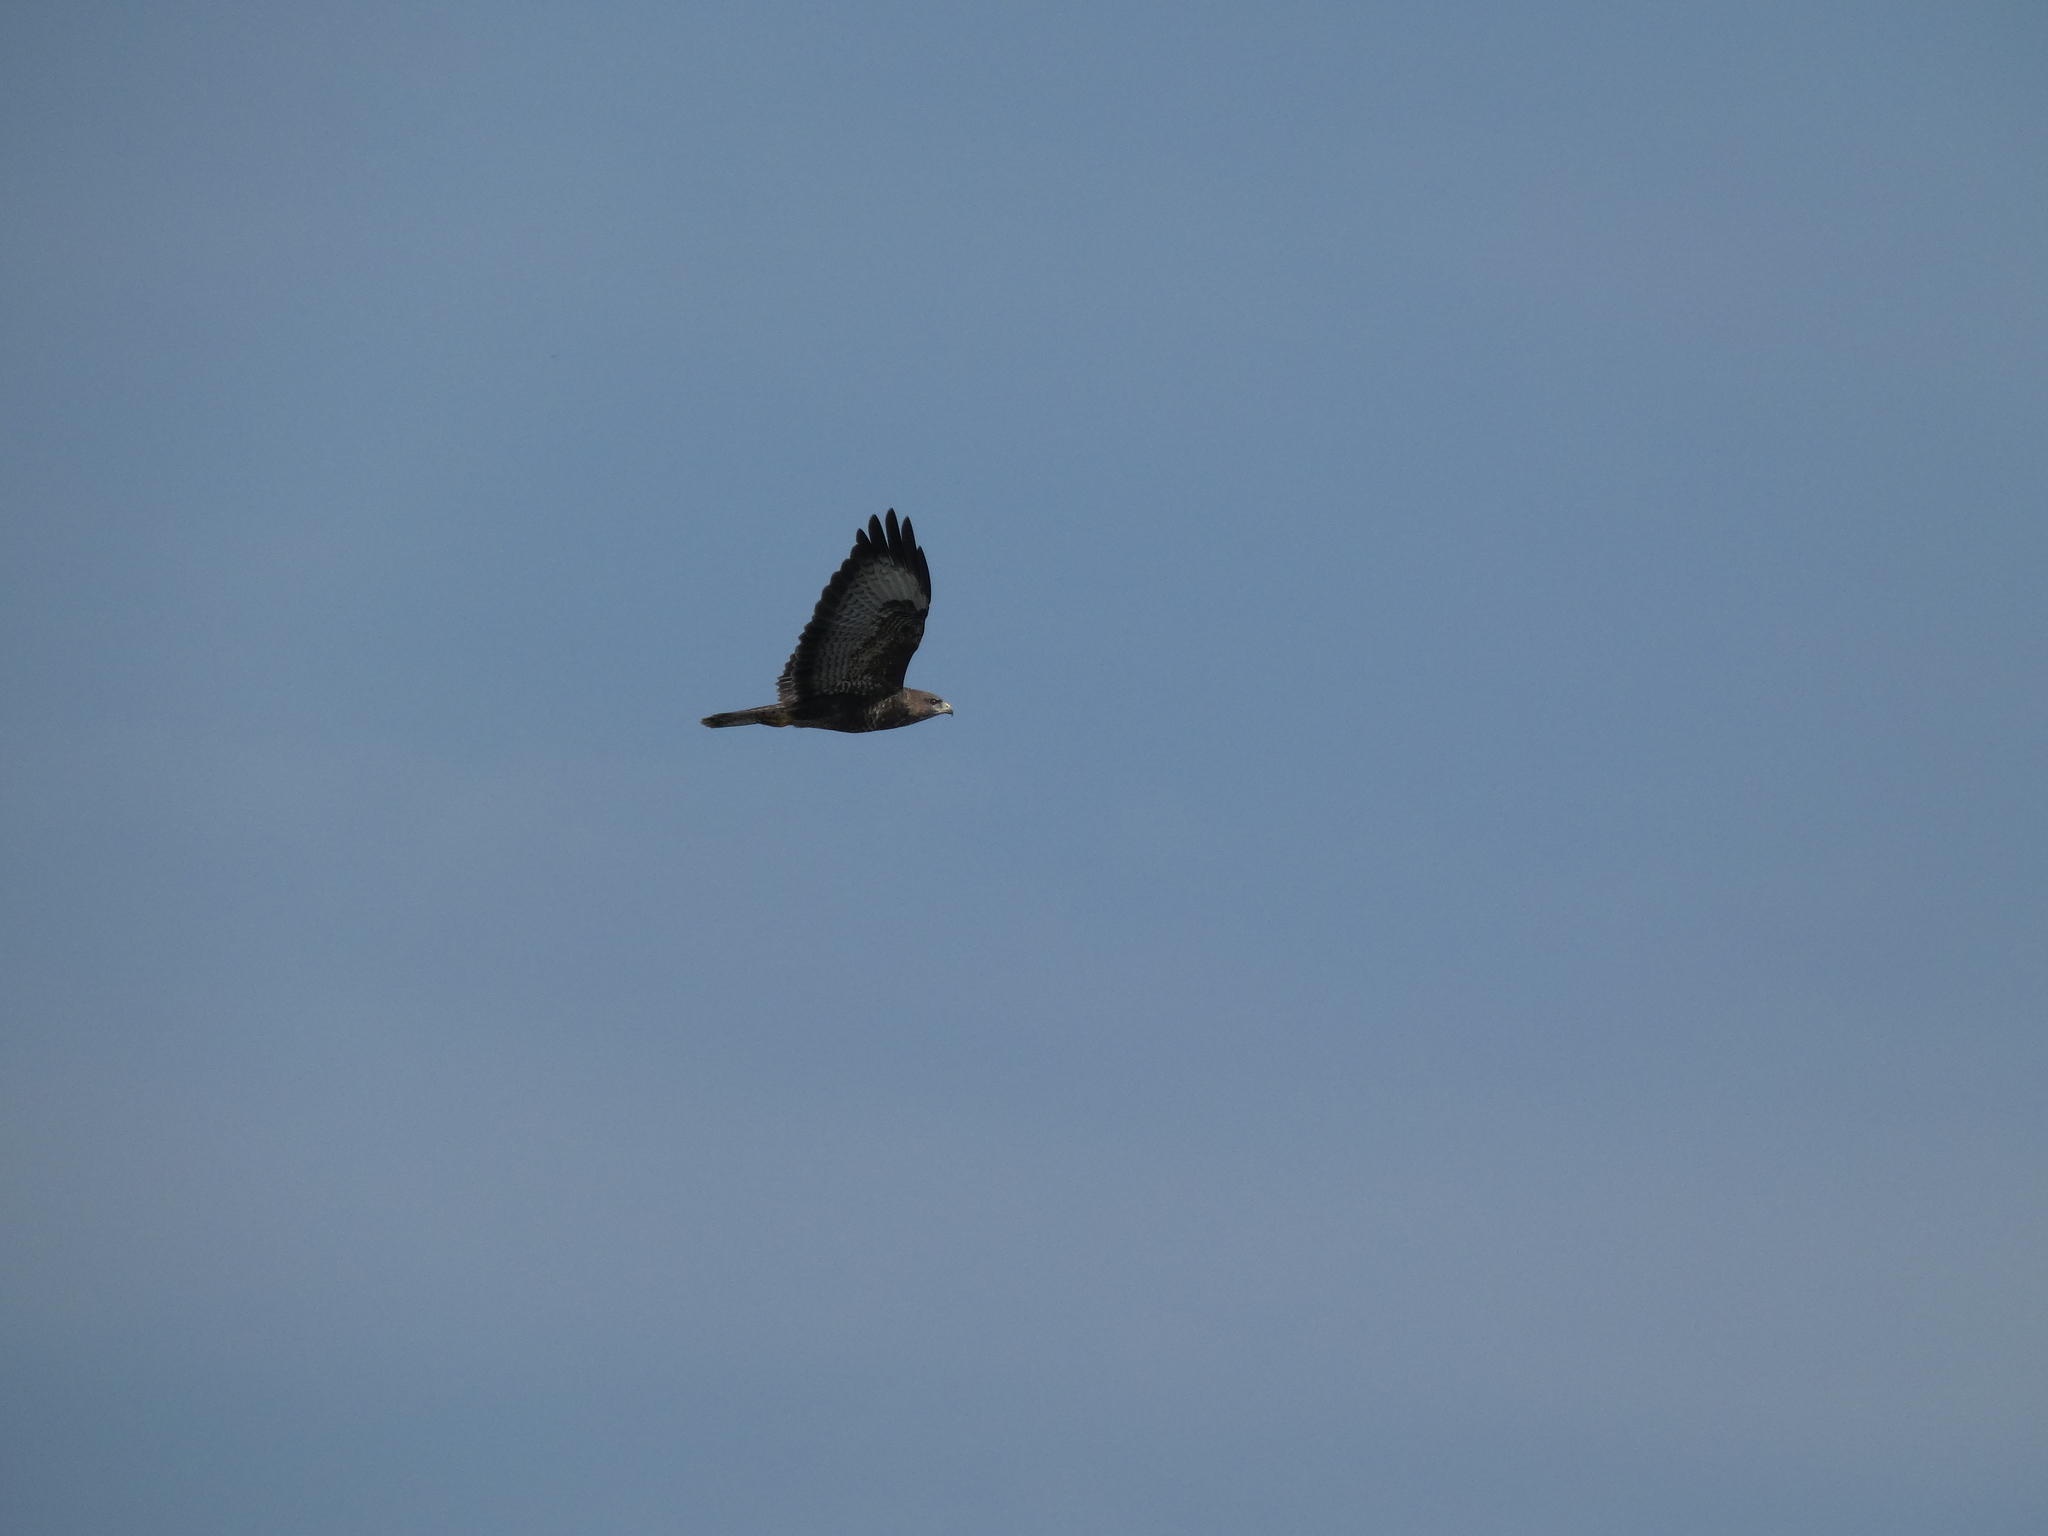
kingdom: Animalia
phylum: Chordata
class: Aves
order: Accipitriformes
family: Accipitridae
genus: Buteo
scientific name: Buteo buteo
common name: Common buzzard
